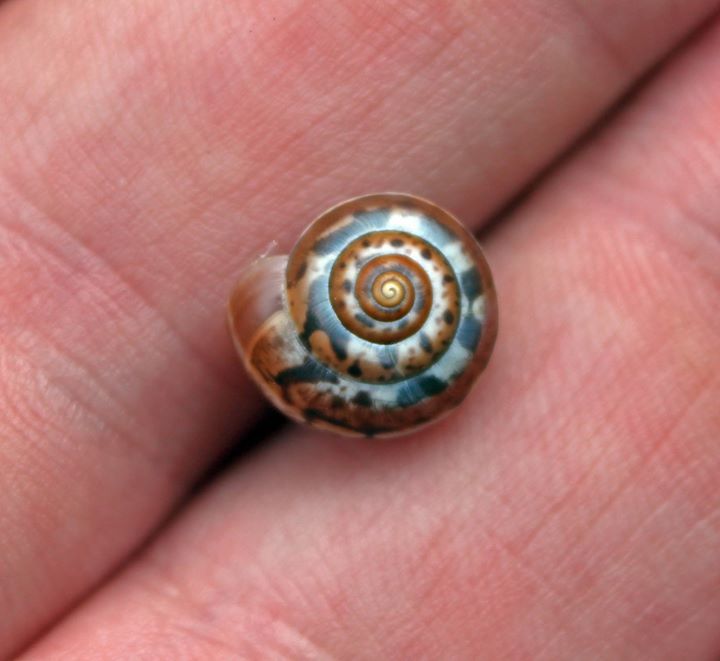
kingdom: Animalia
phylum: Mollusca
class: Gastropoda
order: Stylommatophora
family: Hygromiidae
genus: Monacha
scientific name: Monacha cartusiana
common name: Carthusian snail
